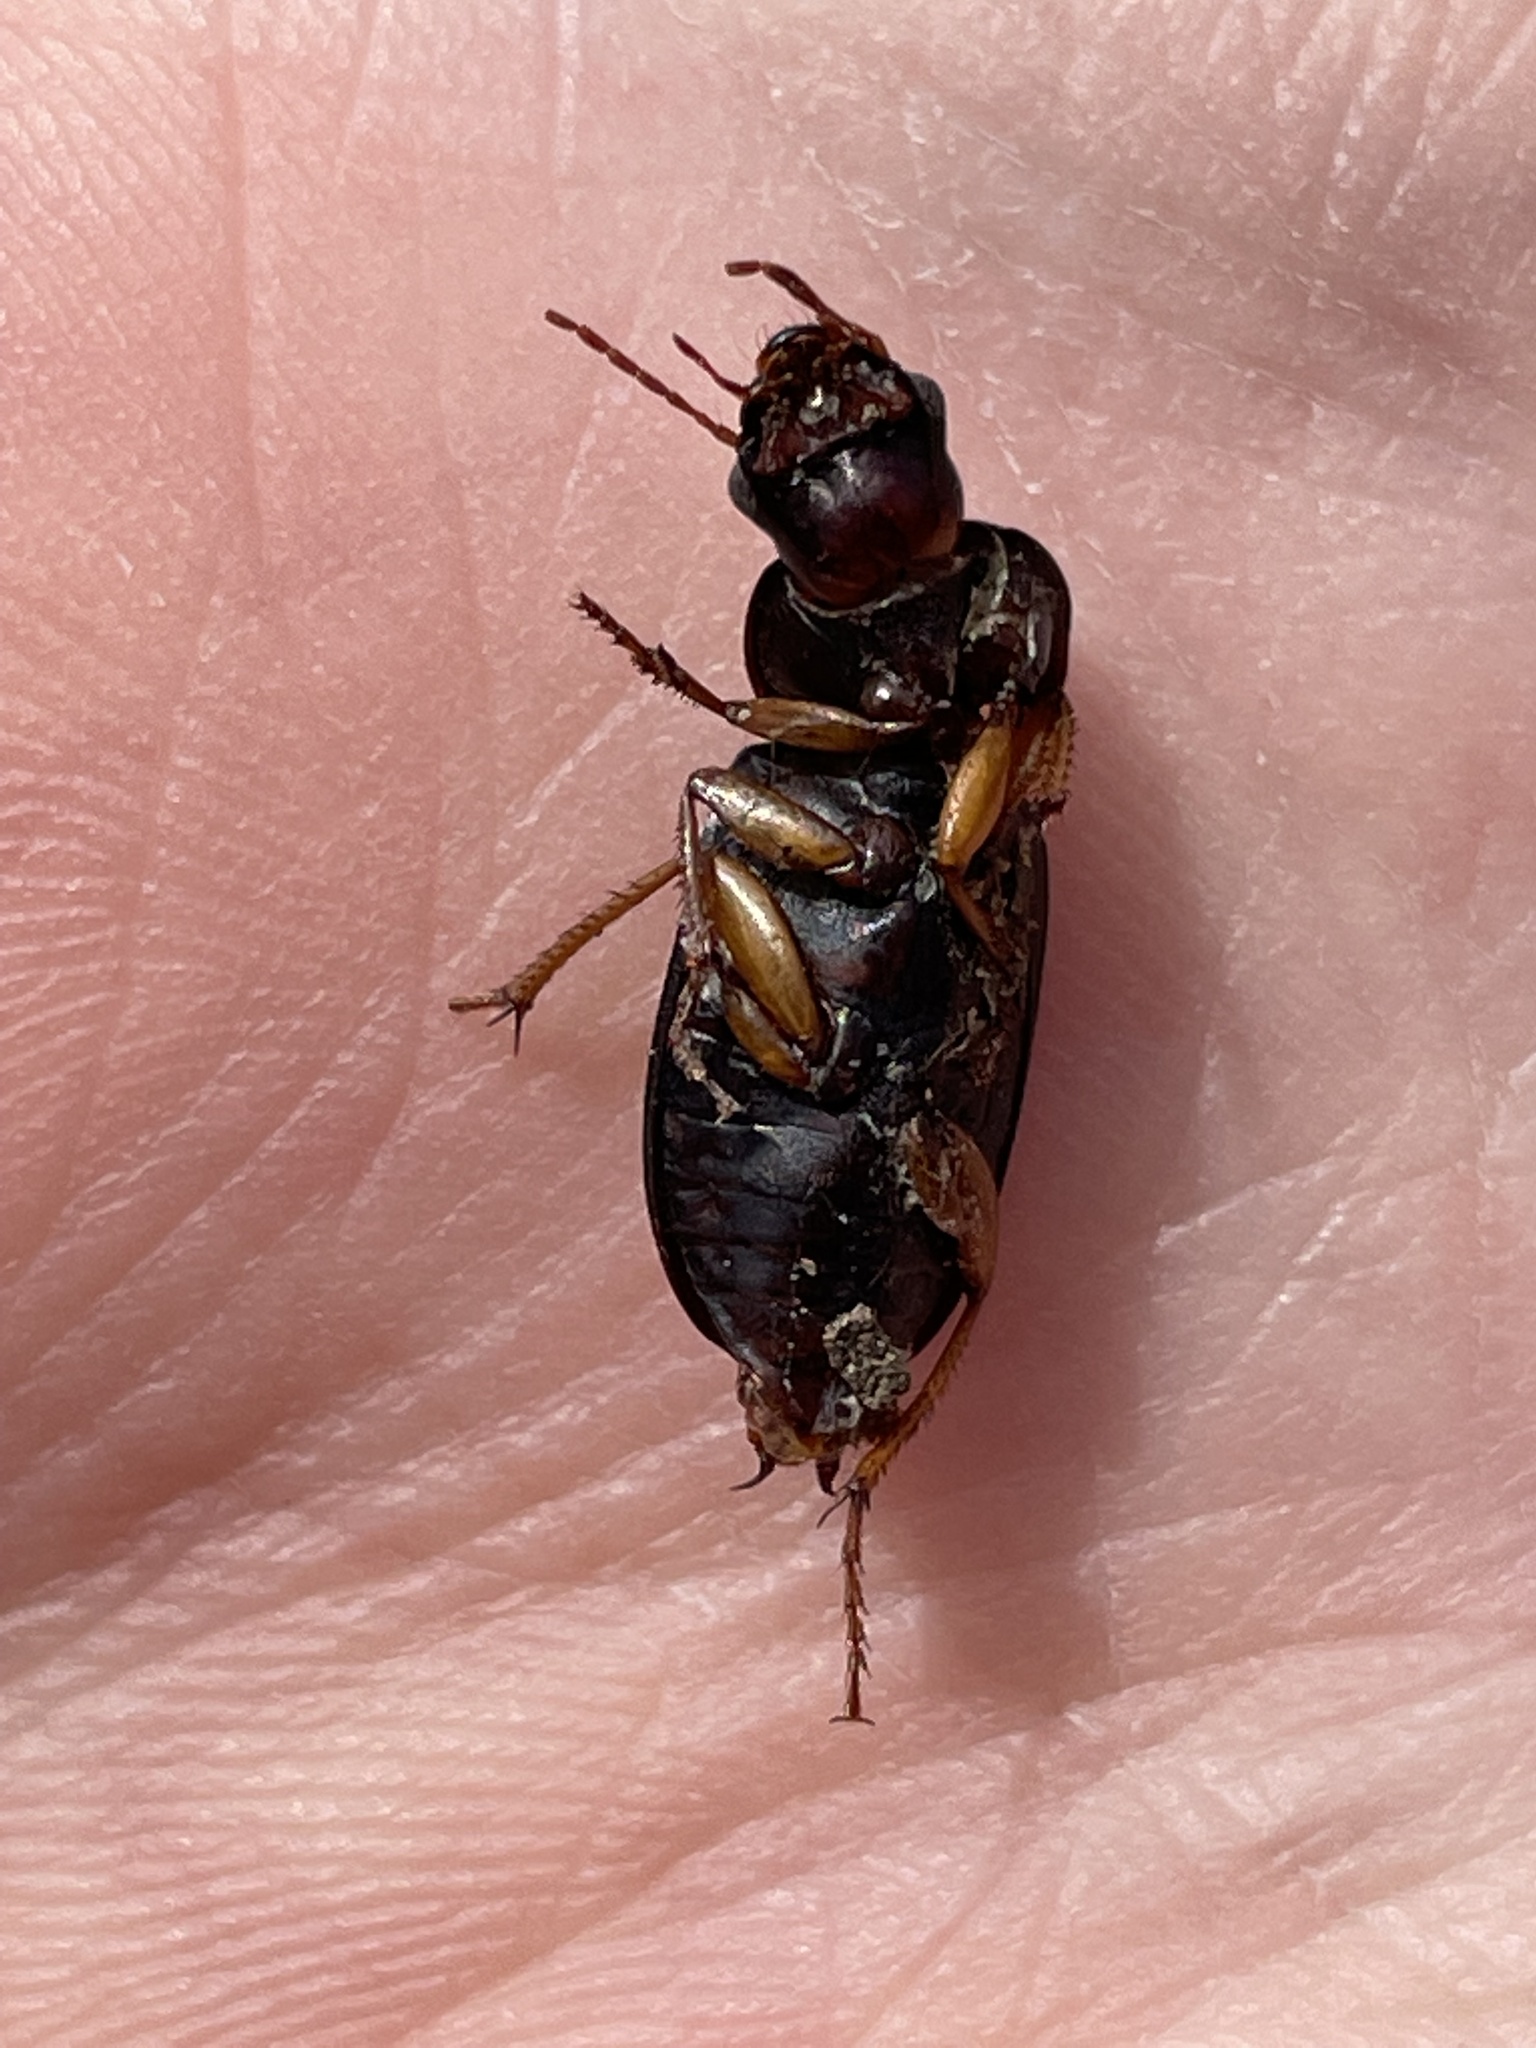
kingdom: Animalia
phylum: Arthropoda
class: Insecta
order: Coleoptera
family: Carabidae
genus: Harpalus
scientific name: Harpalus pensylvanicus
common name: Pennsylvania dingy ground beetle
